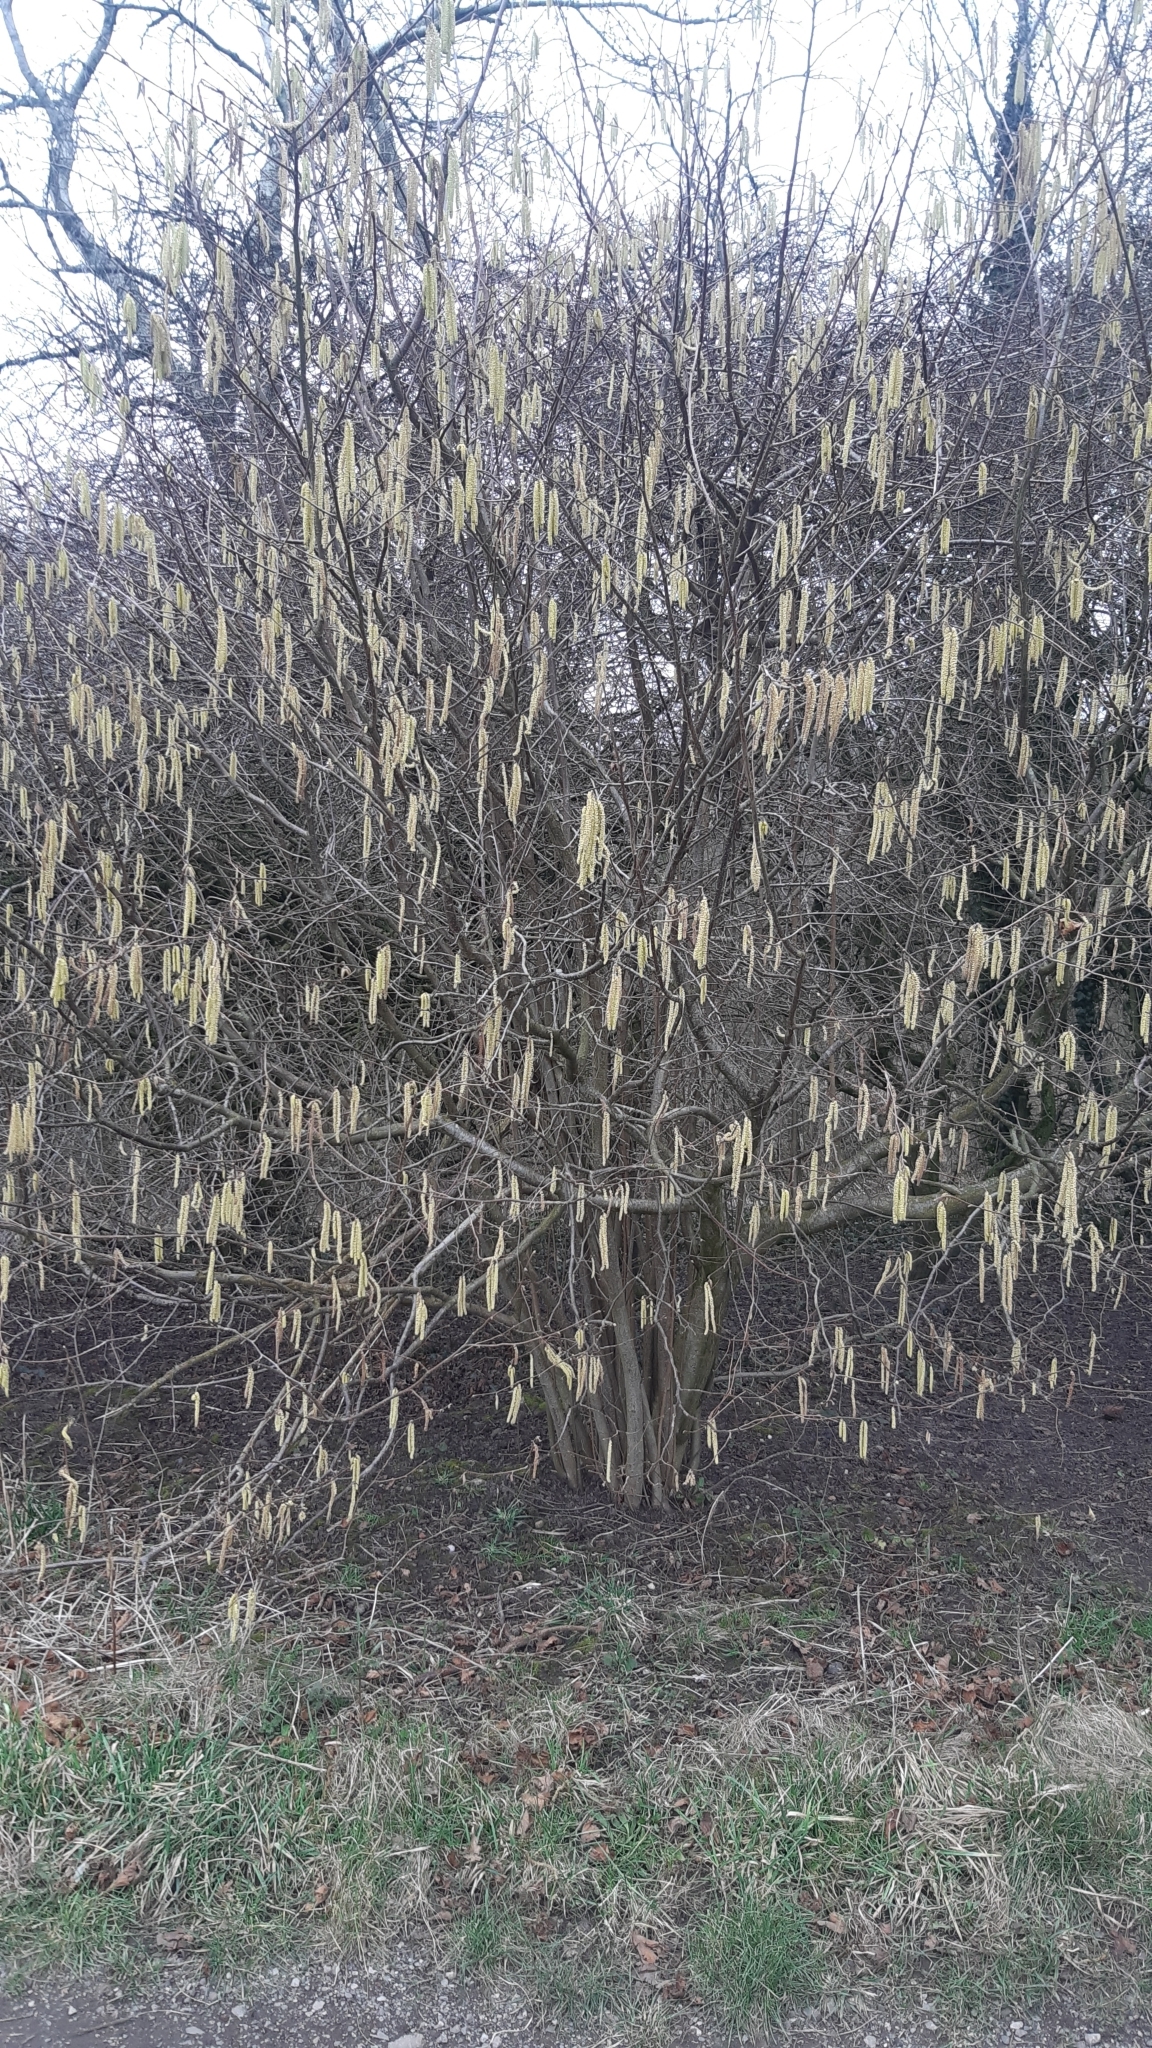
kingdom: Plantae
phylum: Tracheophyta
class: Magnoliopsida
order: Fagales
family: Betulaceae
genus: Corylus
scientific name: Corylus avellana
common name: European hazel
